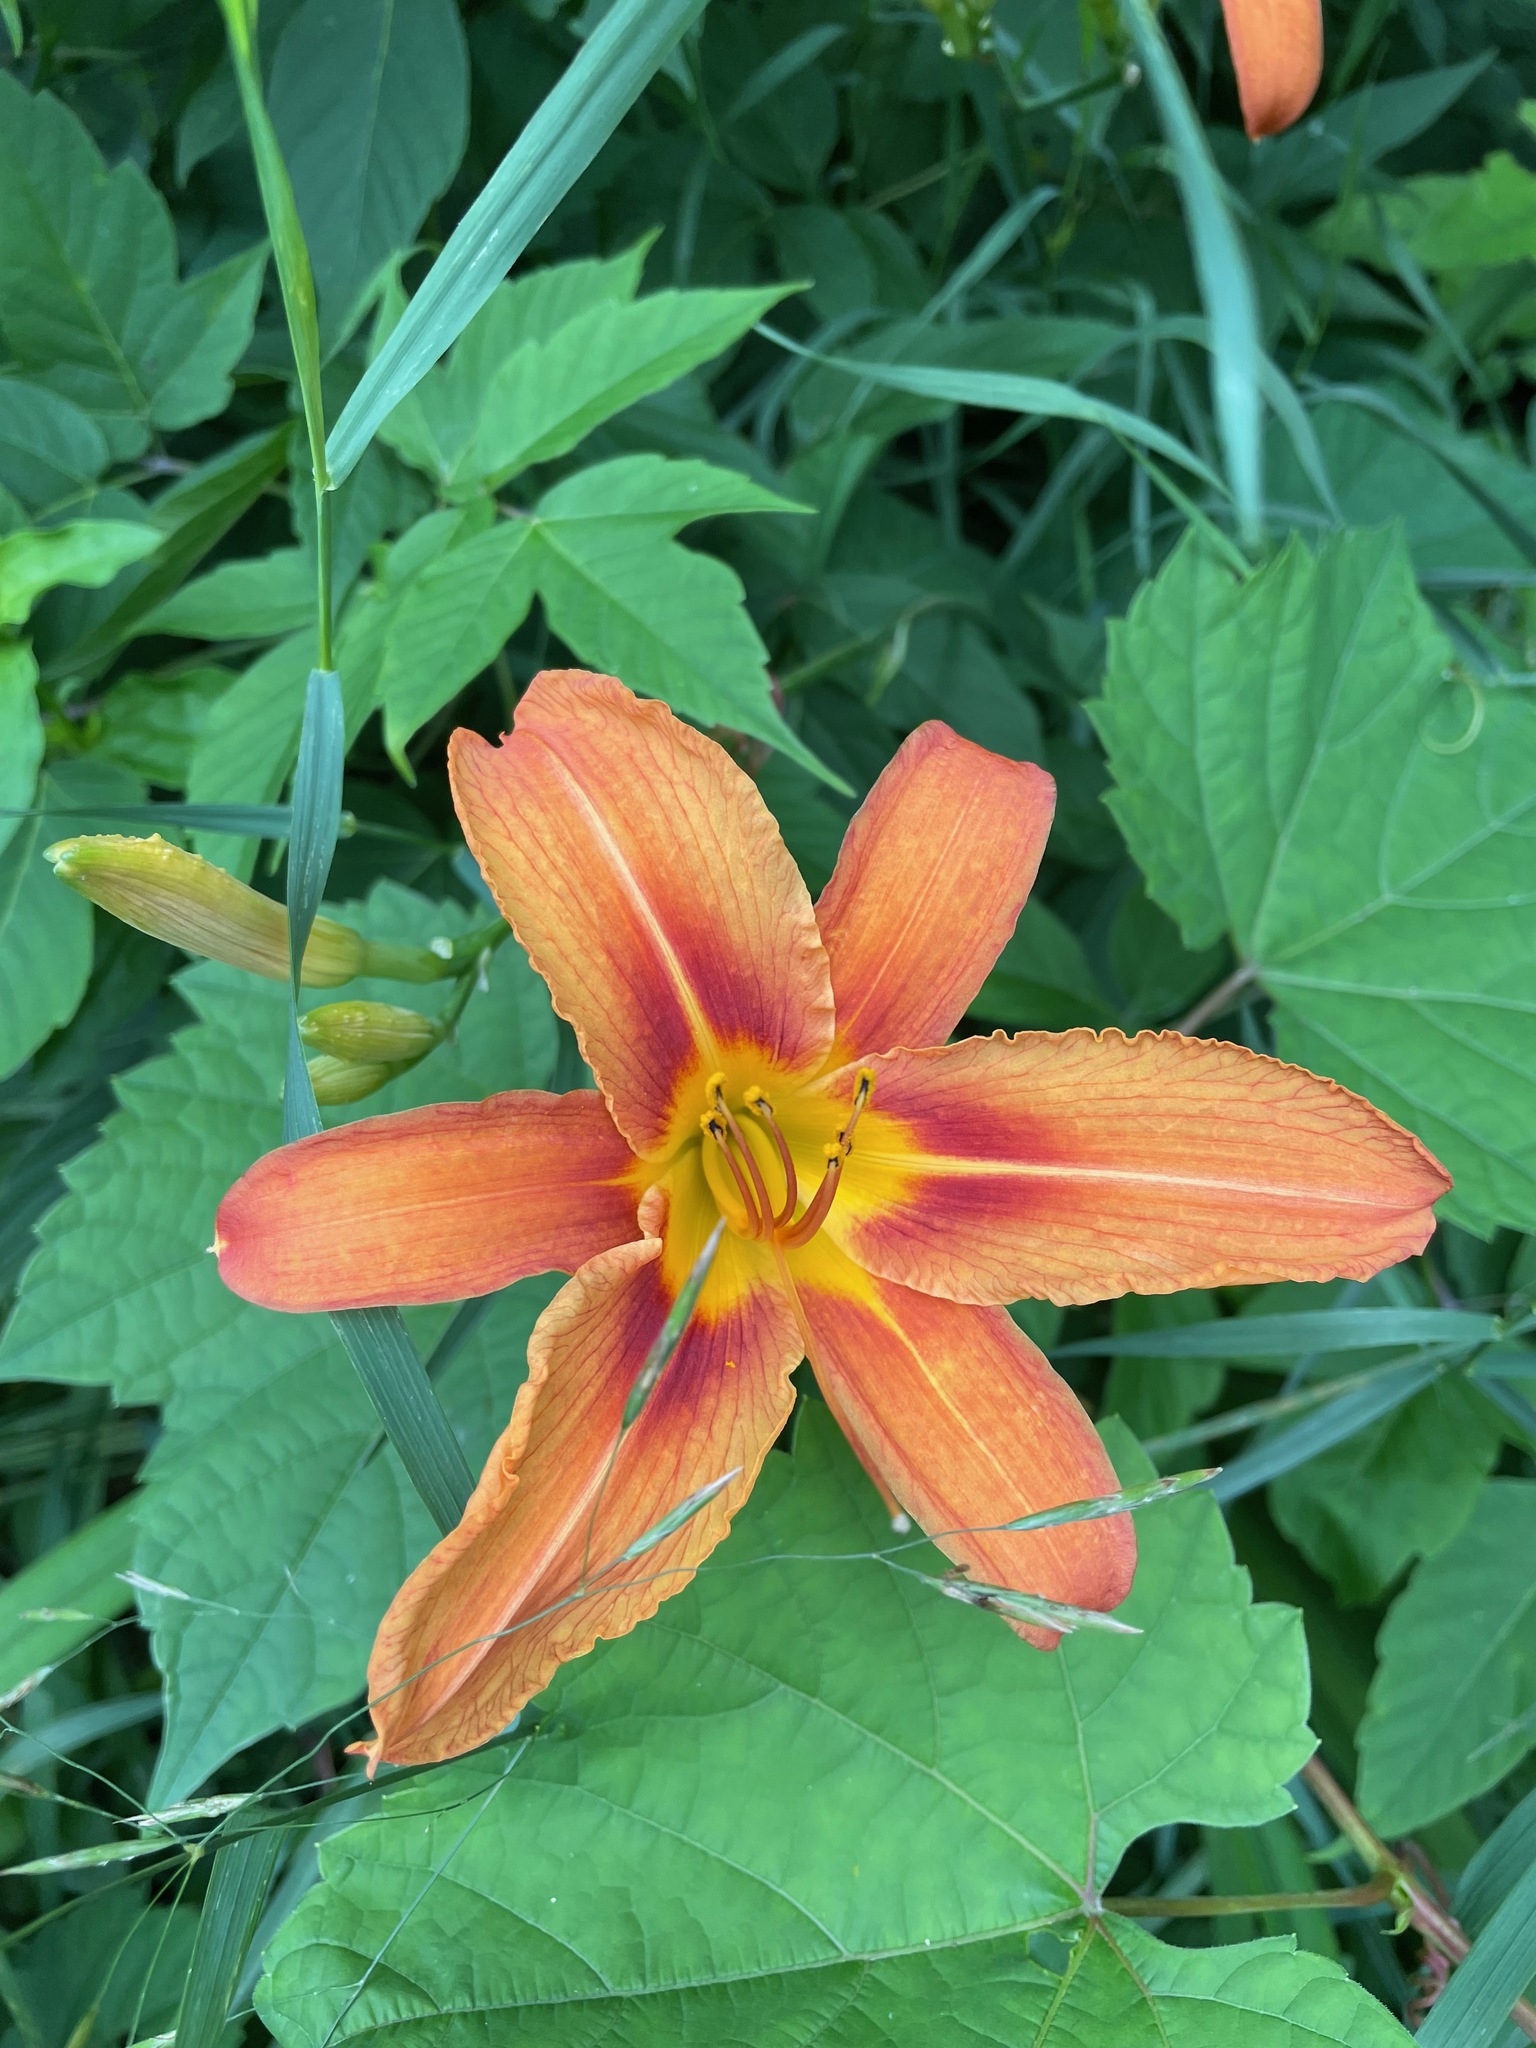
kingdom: Plantae
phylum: Tracheophyta
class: Liliopsida
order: Asparagales
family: Asphodelaceae
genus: Hemerocallis
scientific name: Hemerocallis fulva
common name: Orange day-lily
